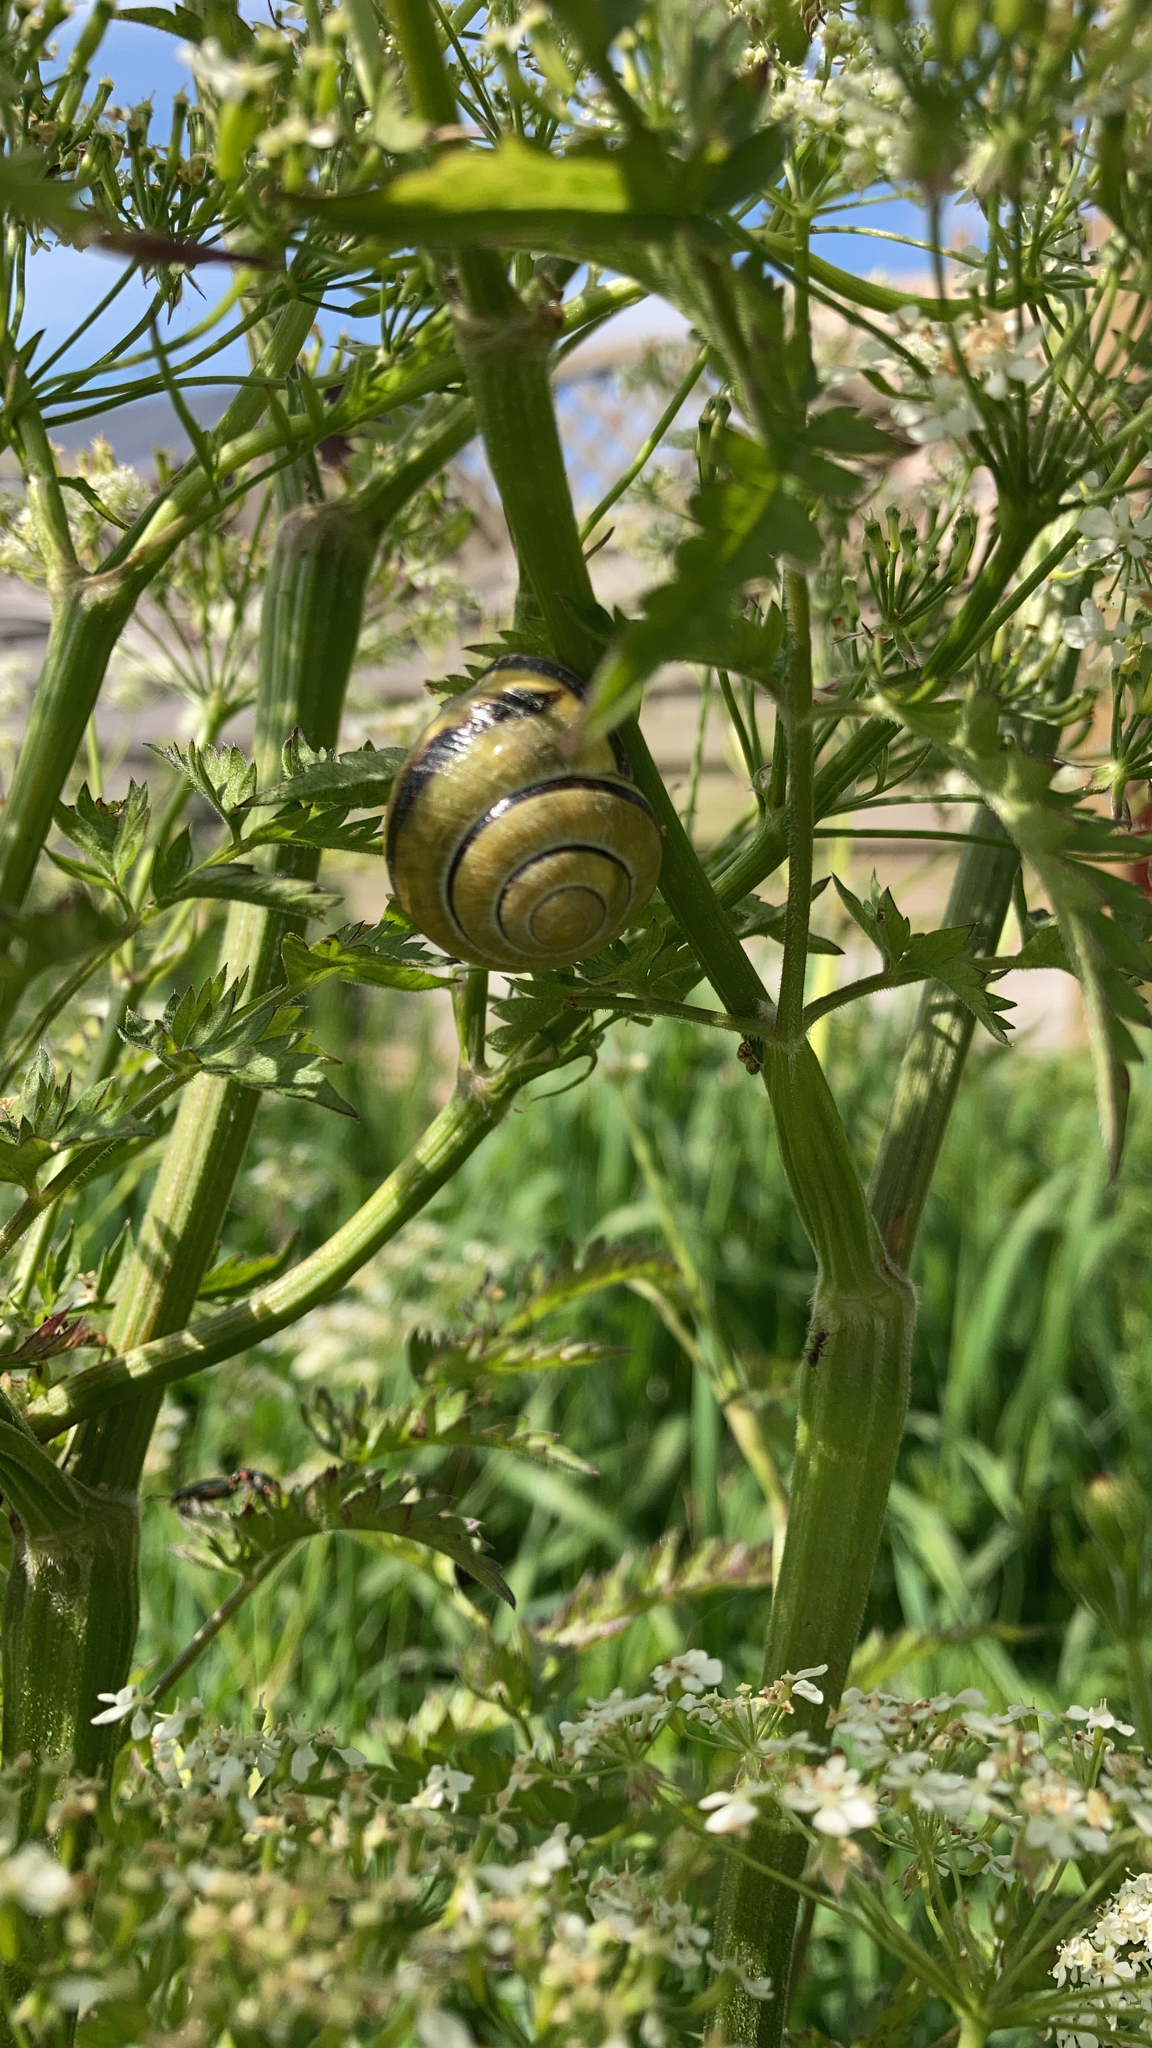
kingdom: Animalia
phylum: Mollusca
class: Gastropoda
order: Stylommatophora
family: Helicidae
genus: Cepaea
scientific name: Cepaea nemoralis
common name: Grovesnail
